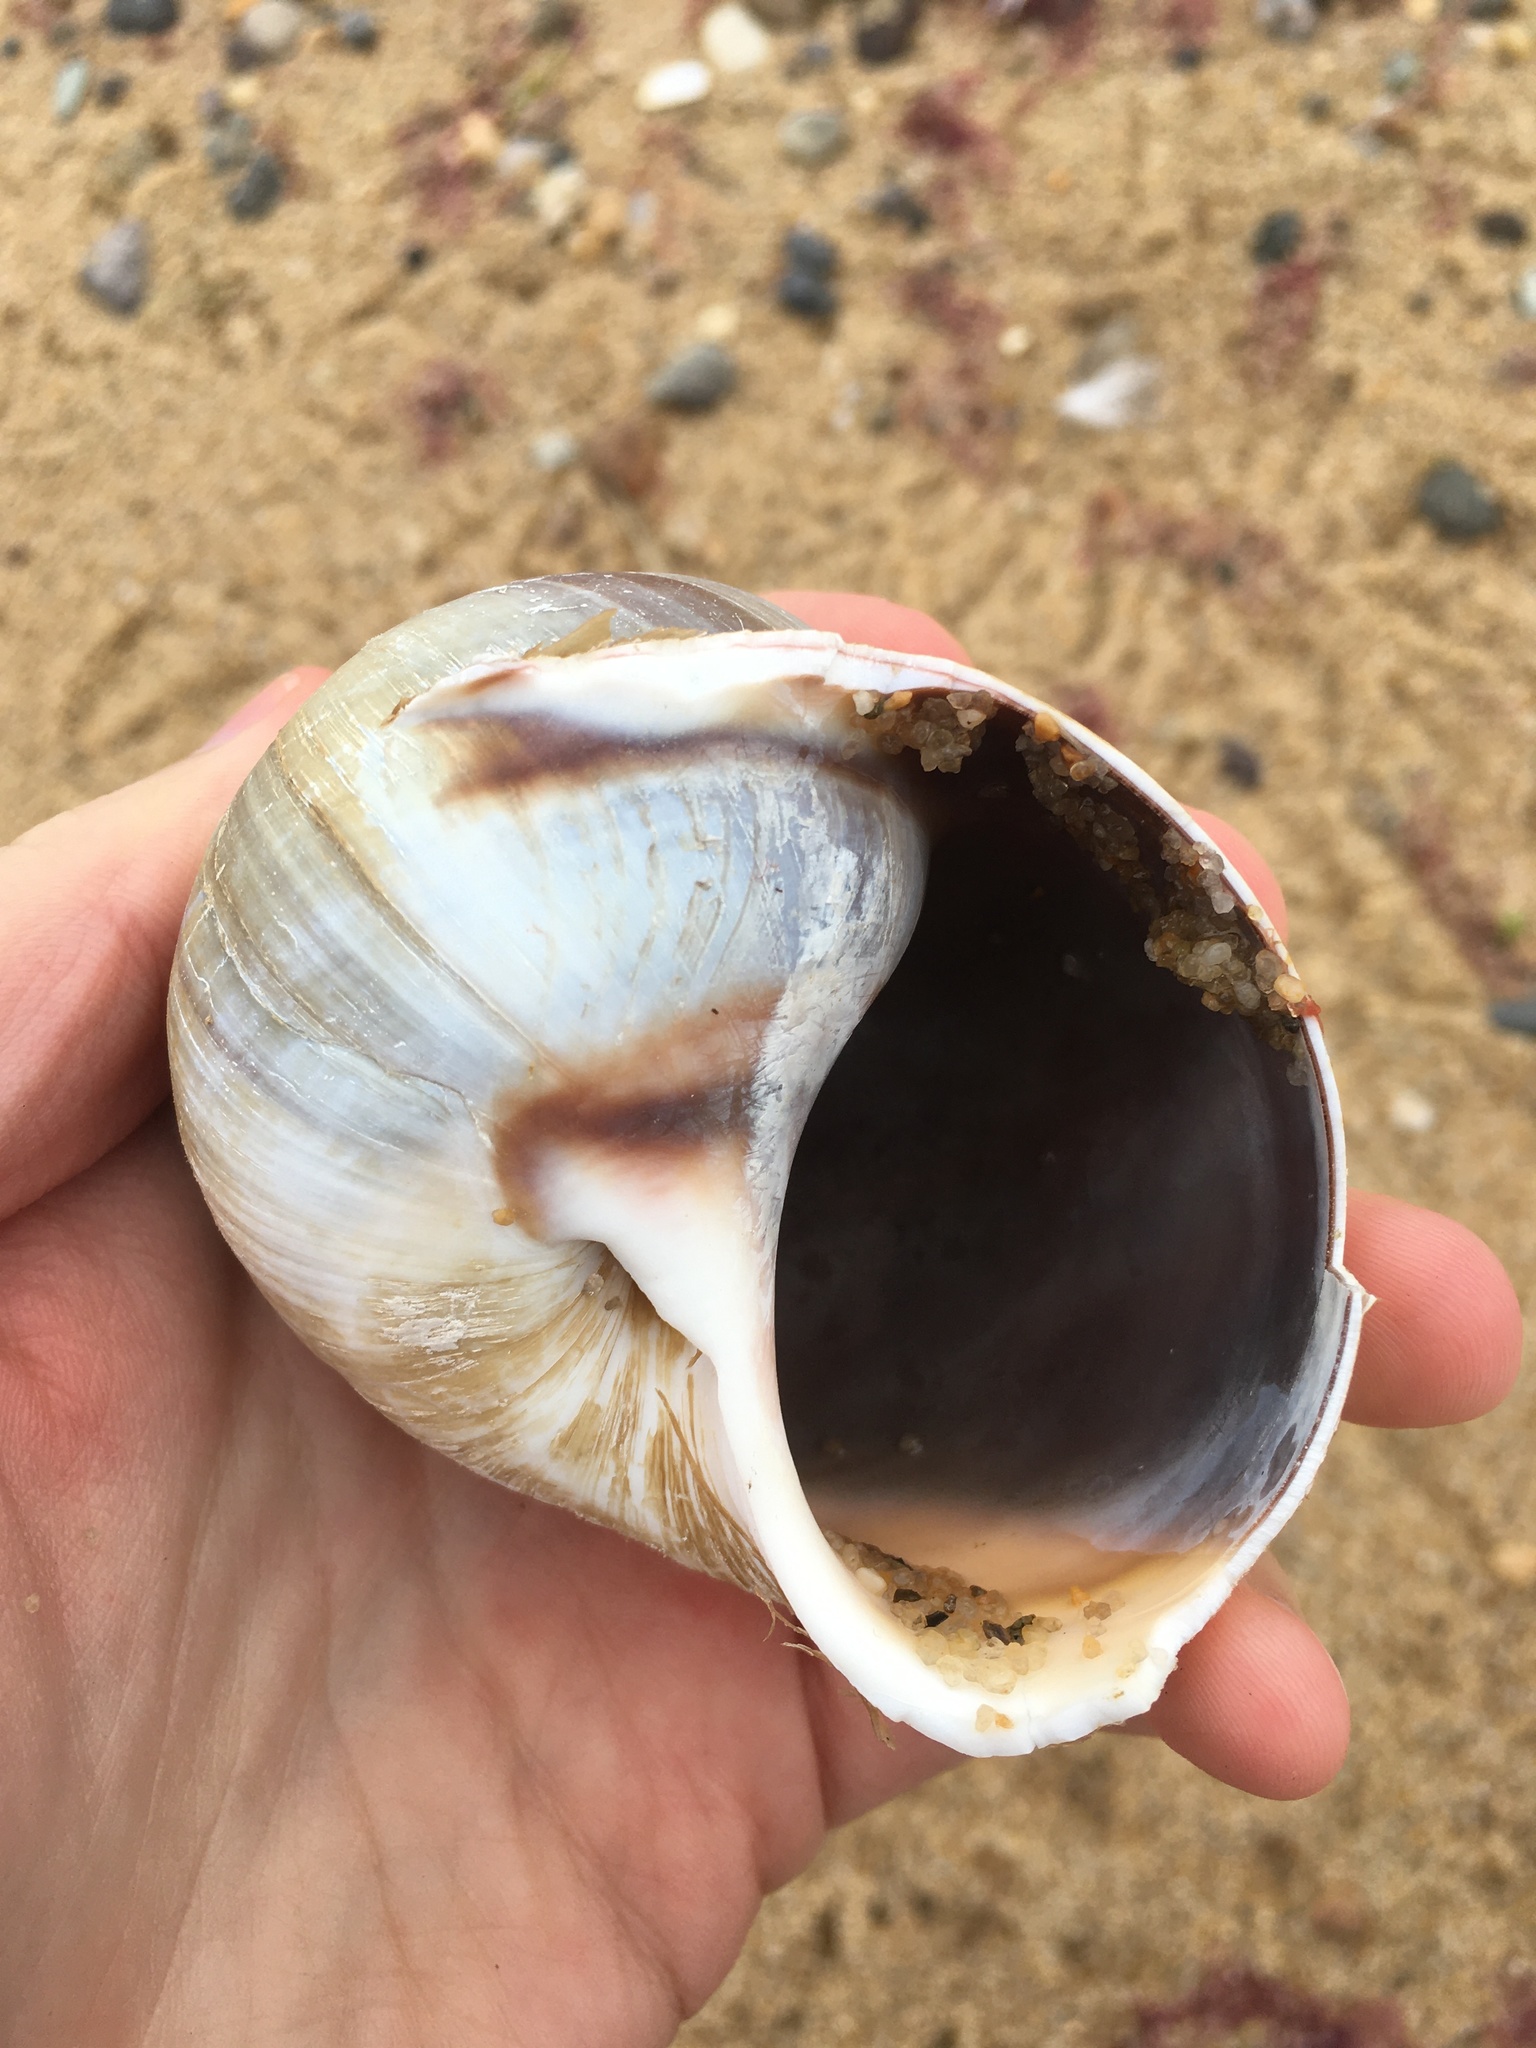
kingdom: Animalia
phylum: Mollusca
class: Gastropoda
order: Littorinimorpha
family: Naticidae
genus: Euspira
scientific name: Euspira heros
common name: Common northern moonsnail
